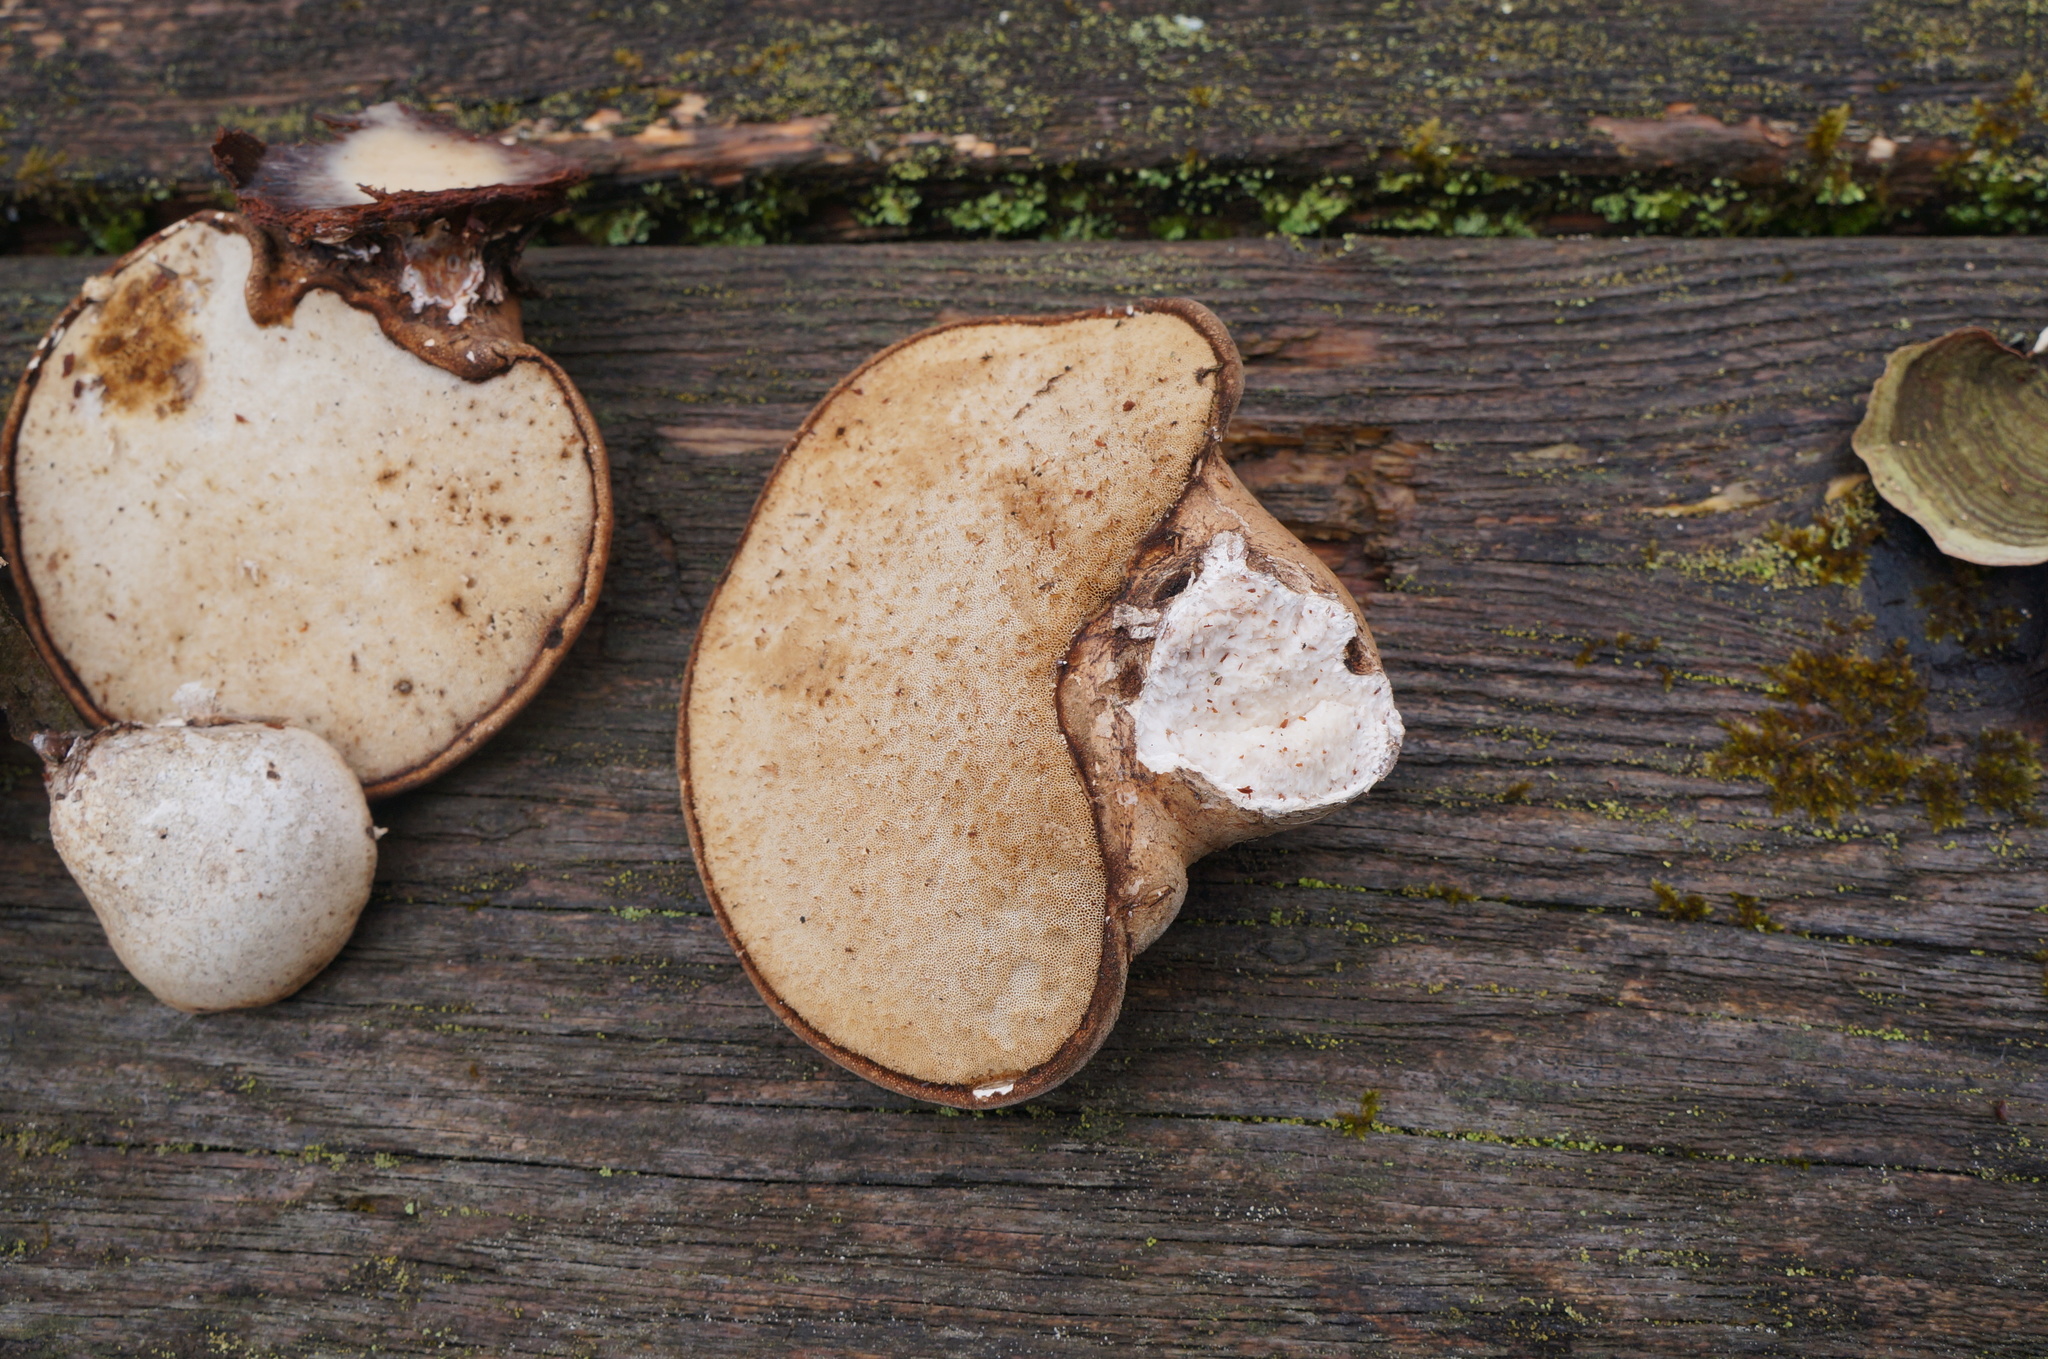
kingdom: Fungi
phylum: Basidiomycota
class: Agaricomycetes
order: Polyporales
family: Fomitopsidaceae
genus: Fomitopsis
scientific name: Fomitopsis betulina
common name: Birch polypore
